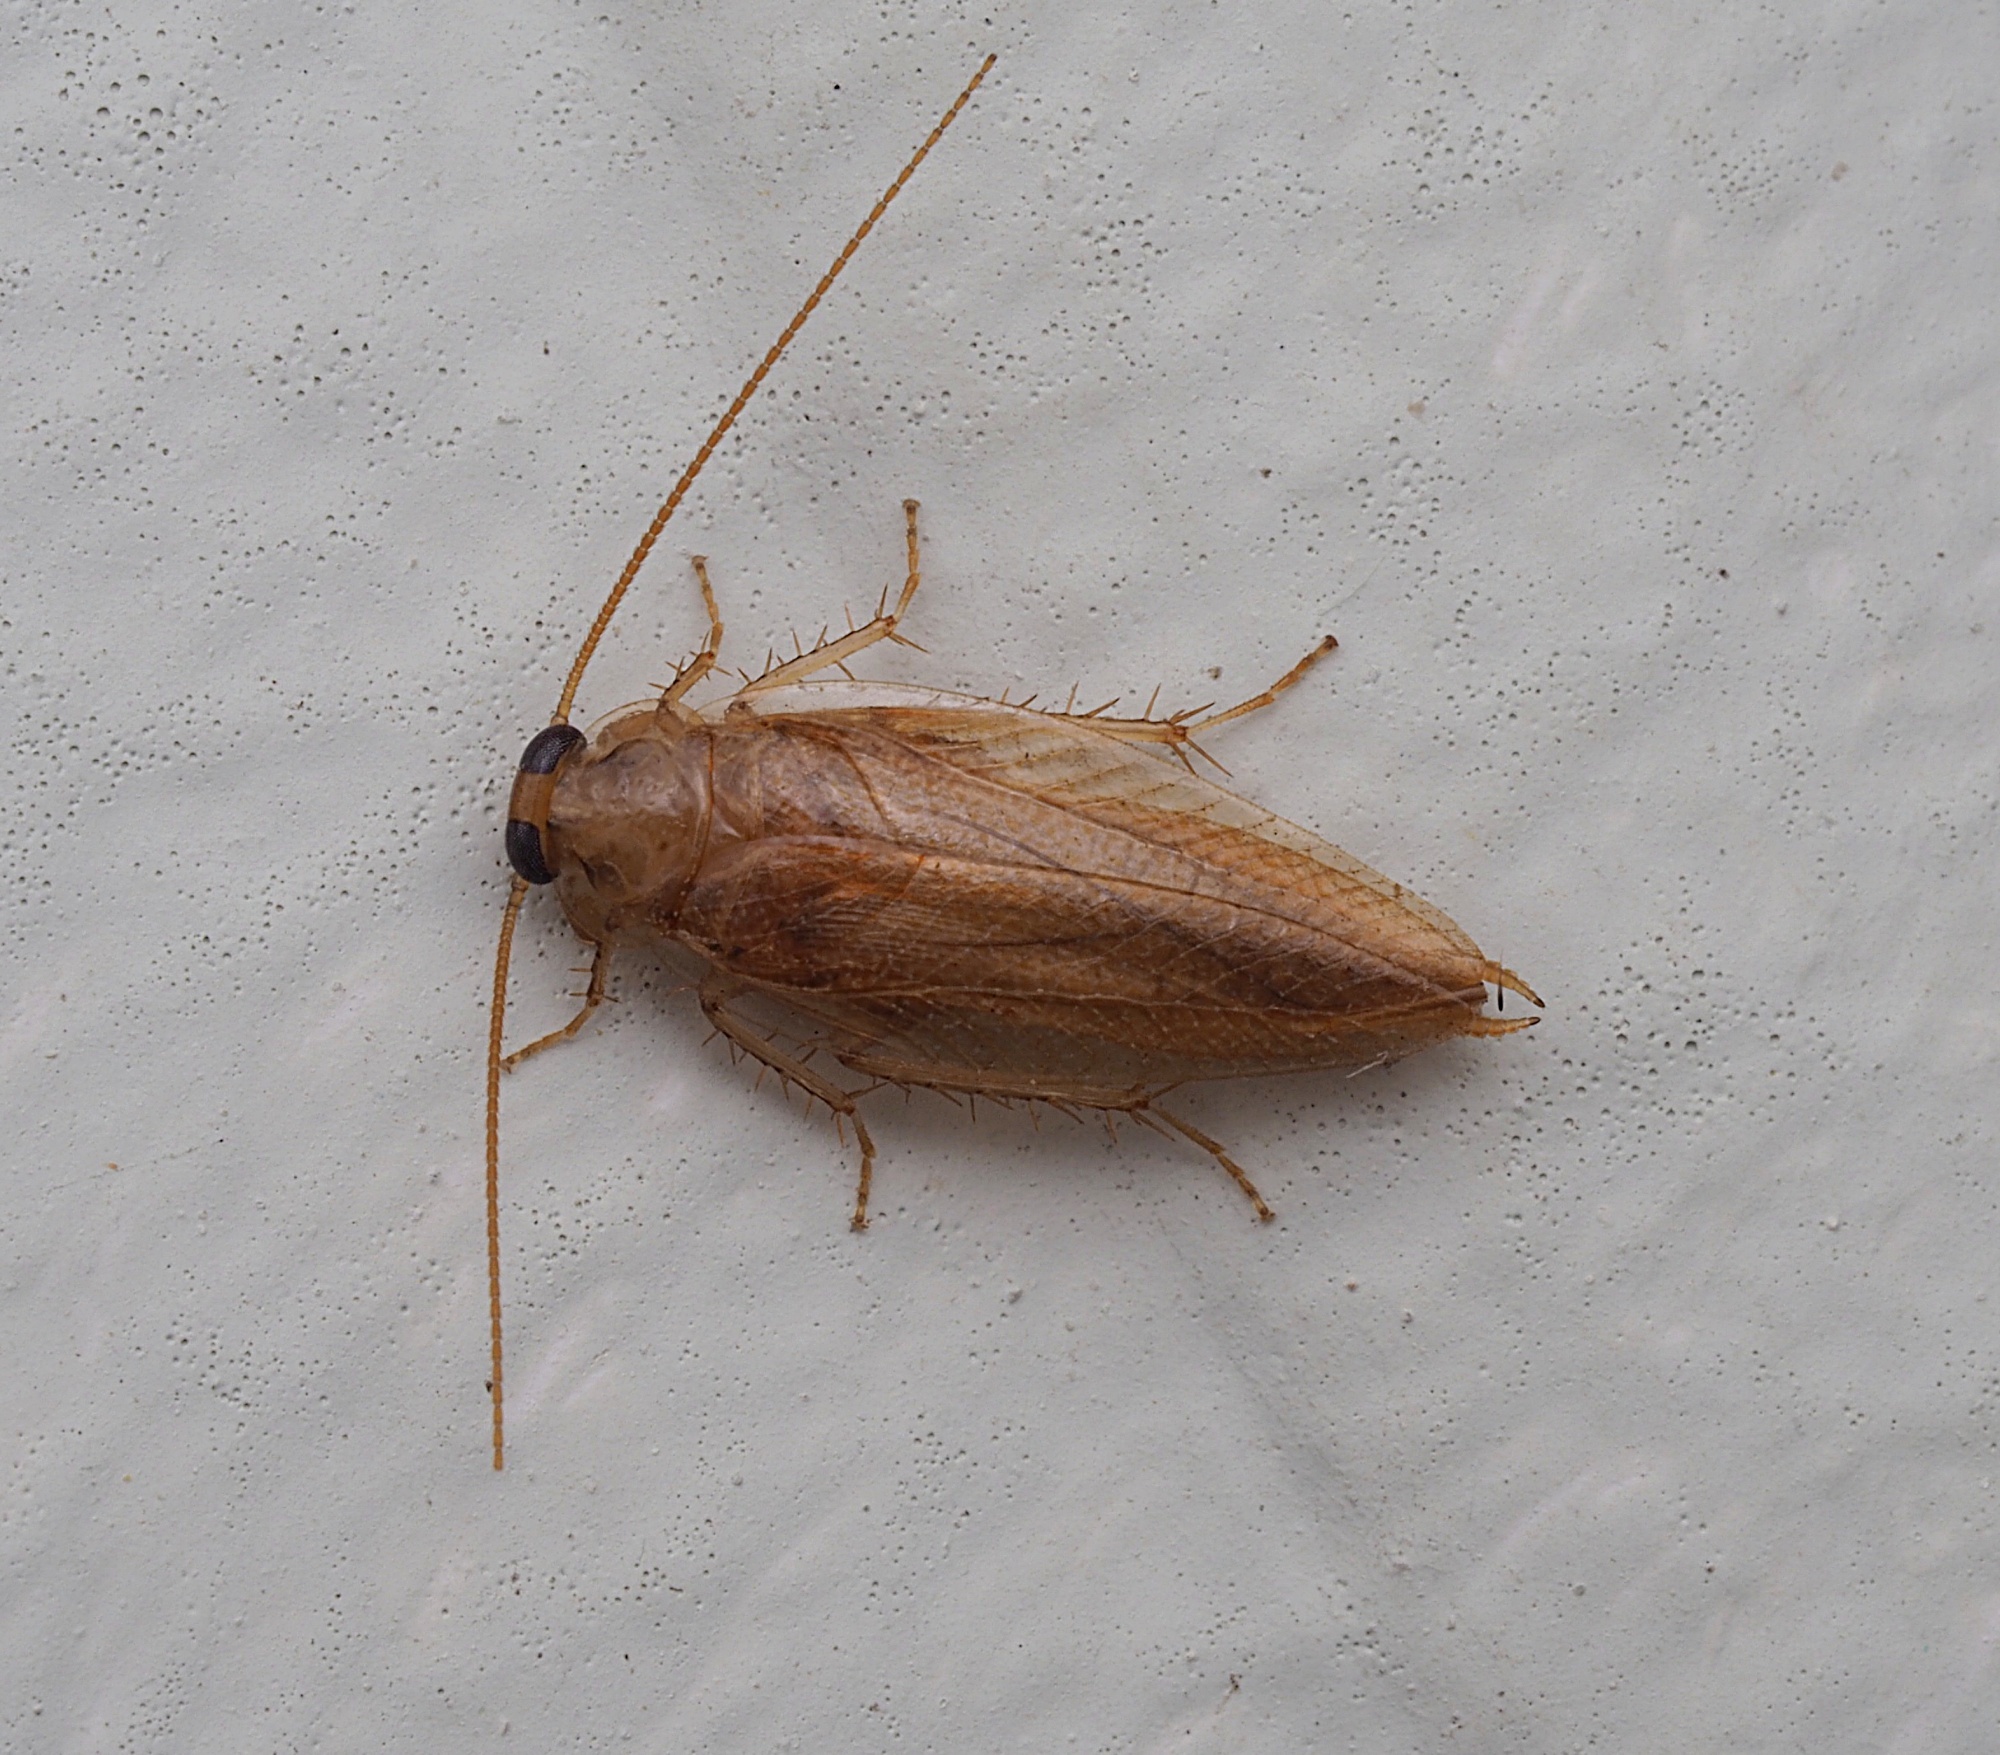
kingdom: Animalia
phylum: Arthropoda
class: Insecta
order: Blattodea
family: Ectobiidae
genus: Celeriblattina
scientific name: Celeriblattina major
